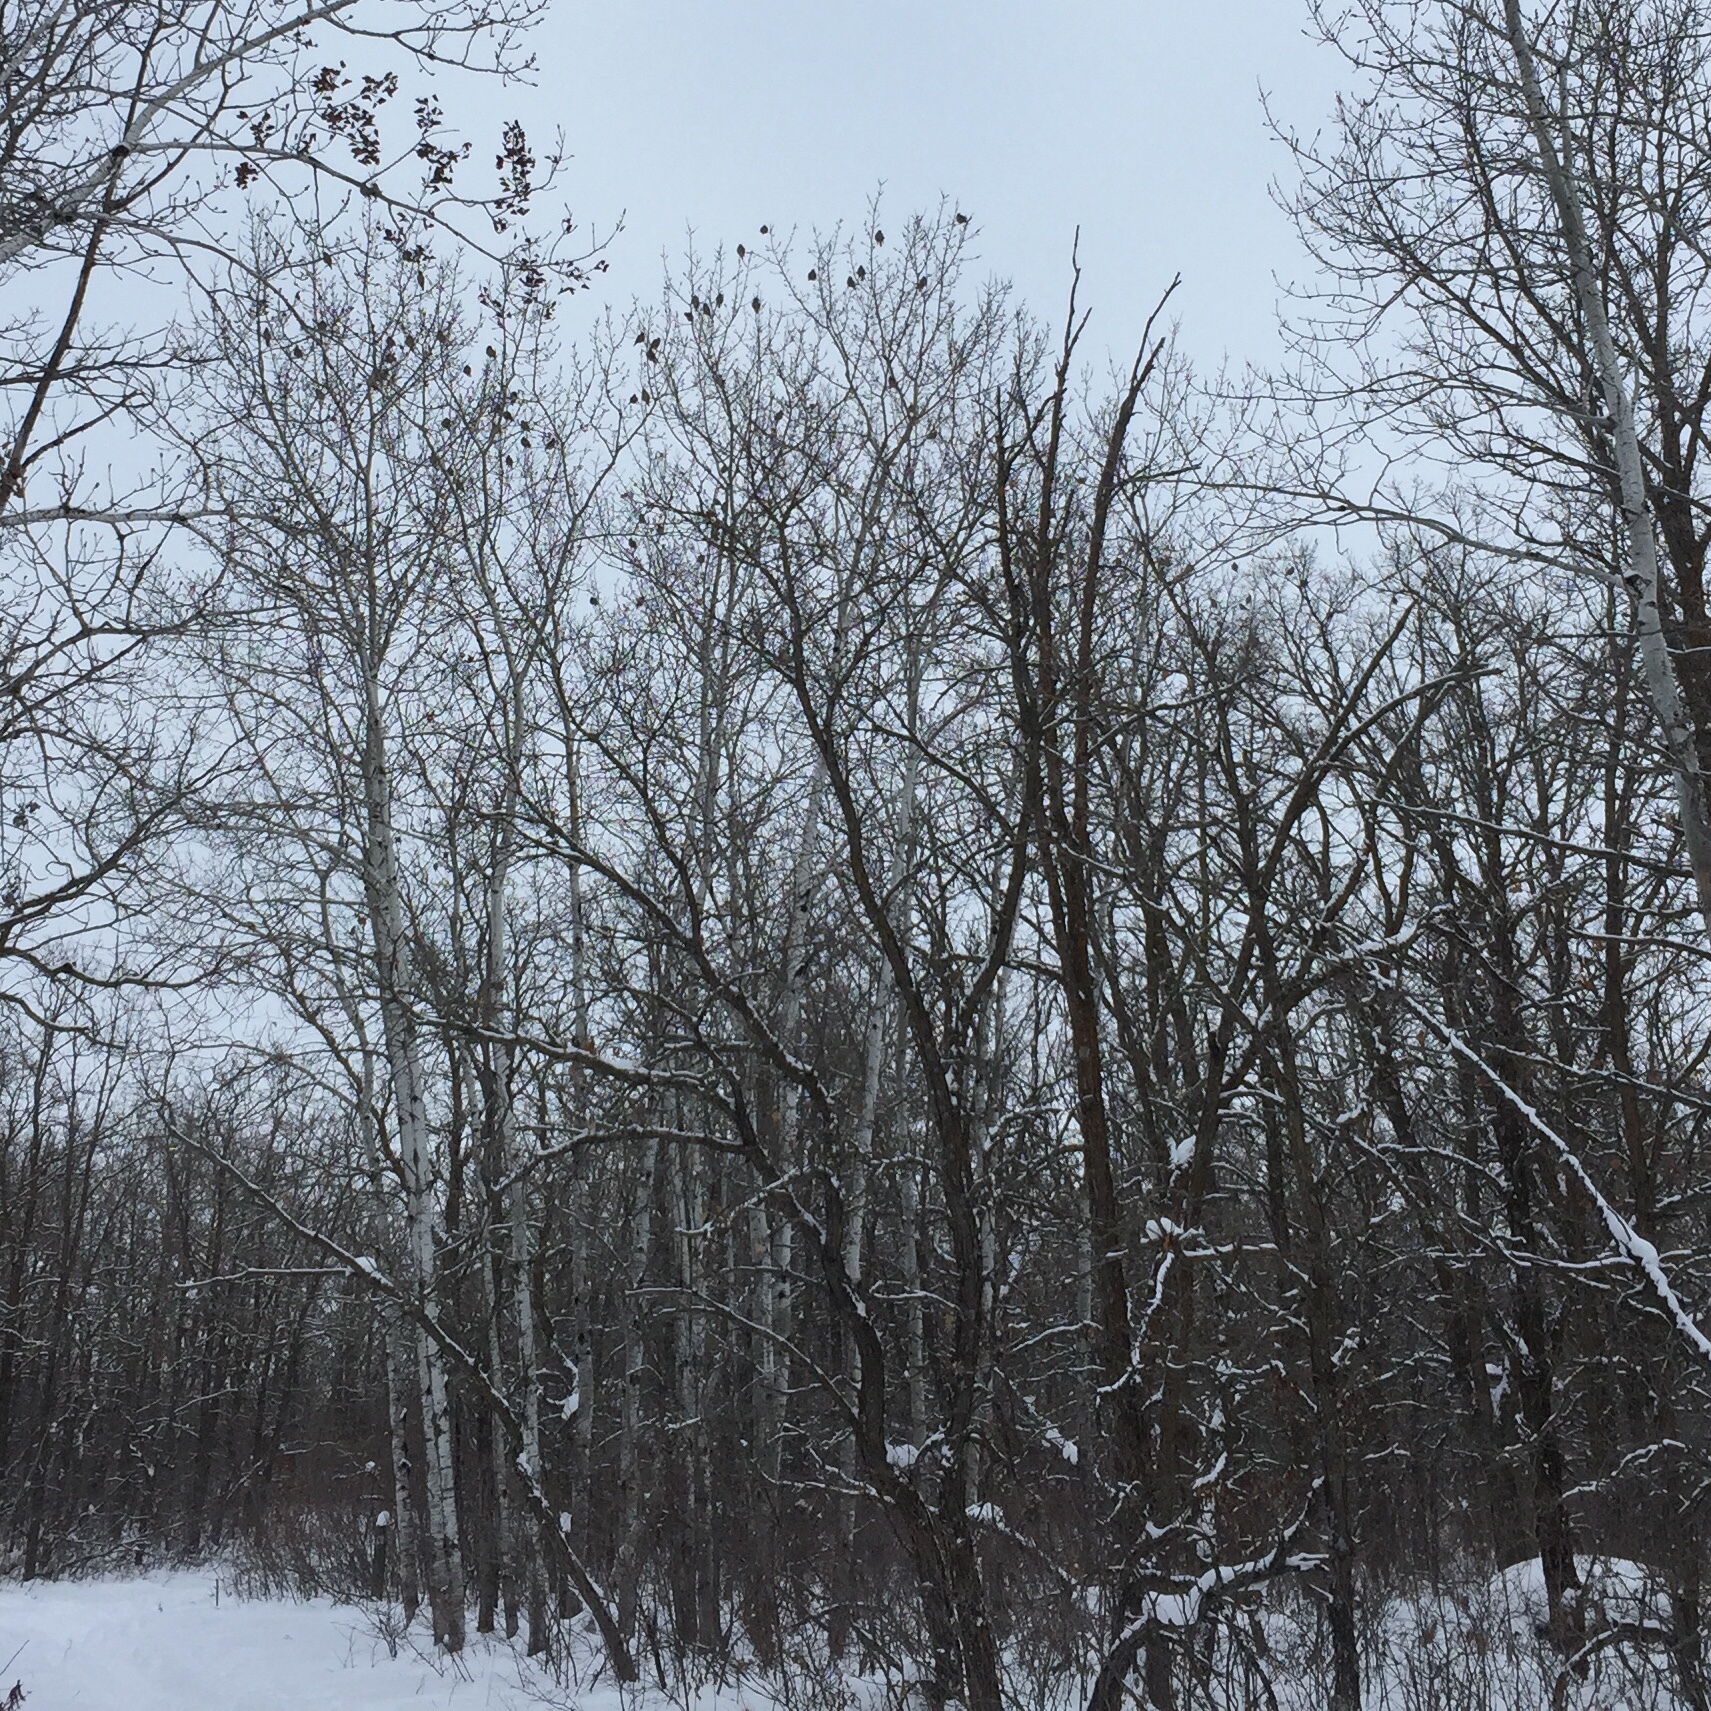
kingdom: Animalia
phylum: Chordata
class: Aves
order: Passeriformes
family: Bombycillidae
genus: Bombycilla
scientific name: Bombycilla garrulus
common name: Bohemian waxwing
